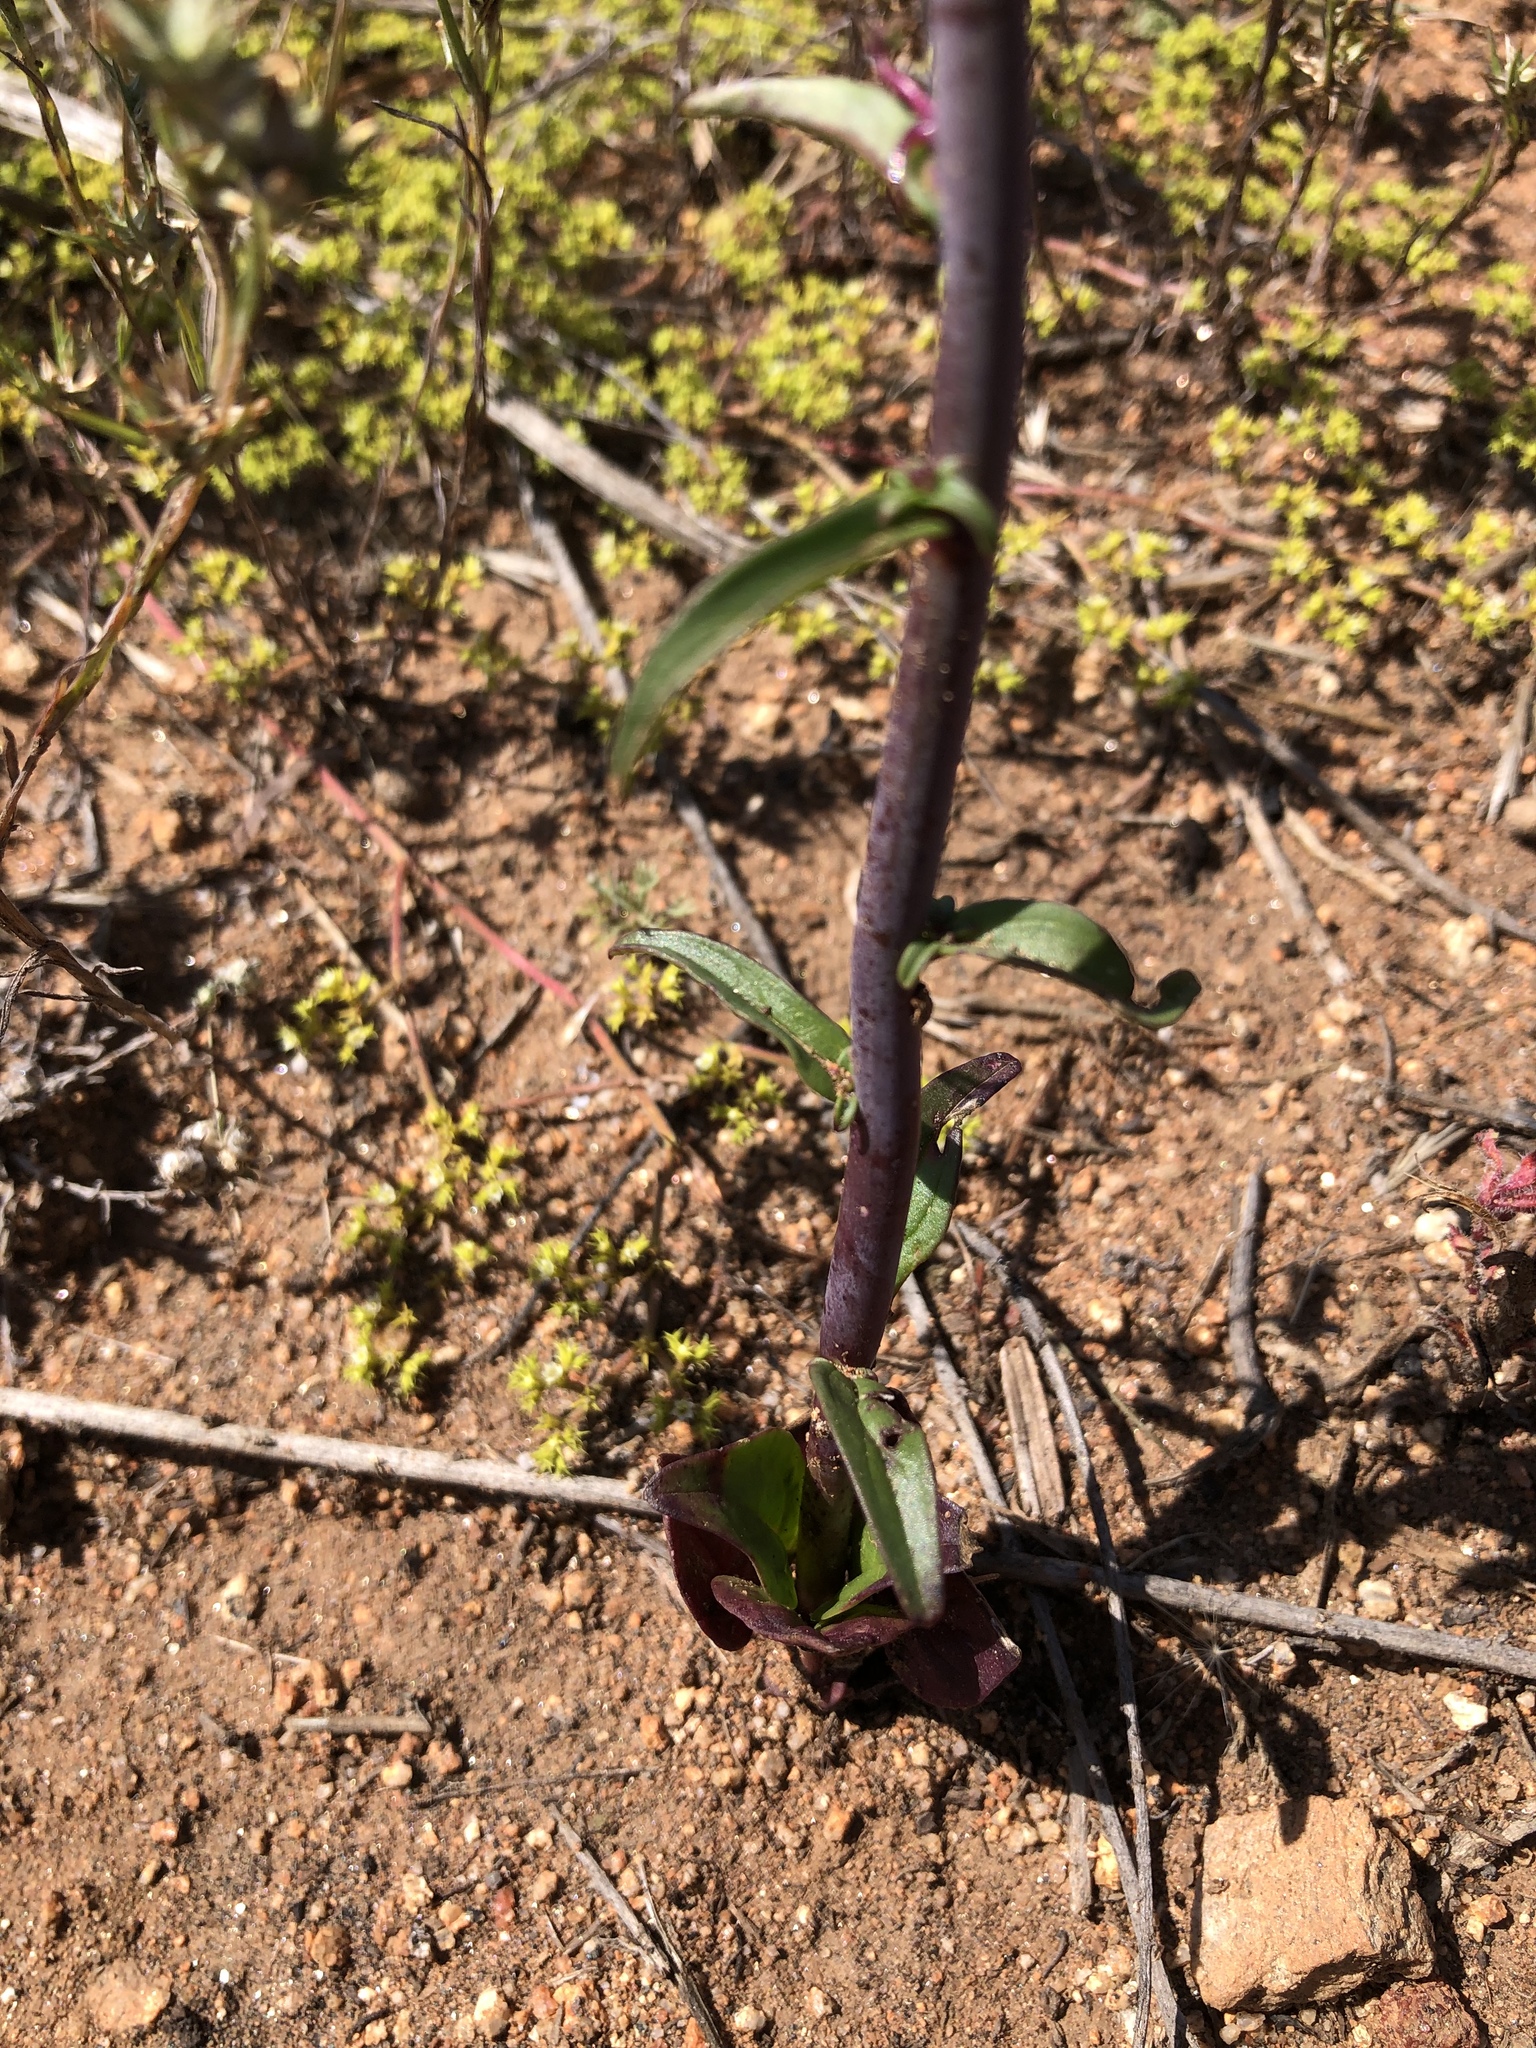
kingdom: Plantae
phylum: Tracheophyta
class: Magnoliopsida
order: Lamiales
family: Plantaginaceae
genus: Sairocarpus
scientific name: Sairocarpus coulterianus
